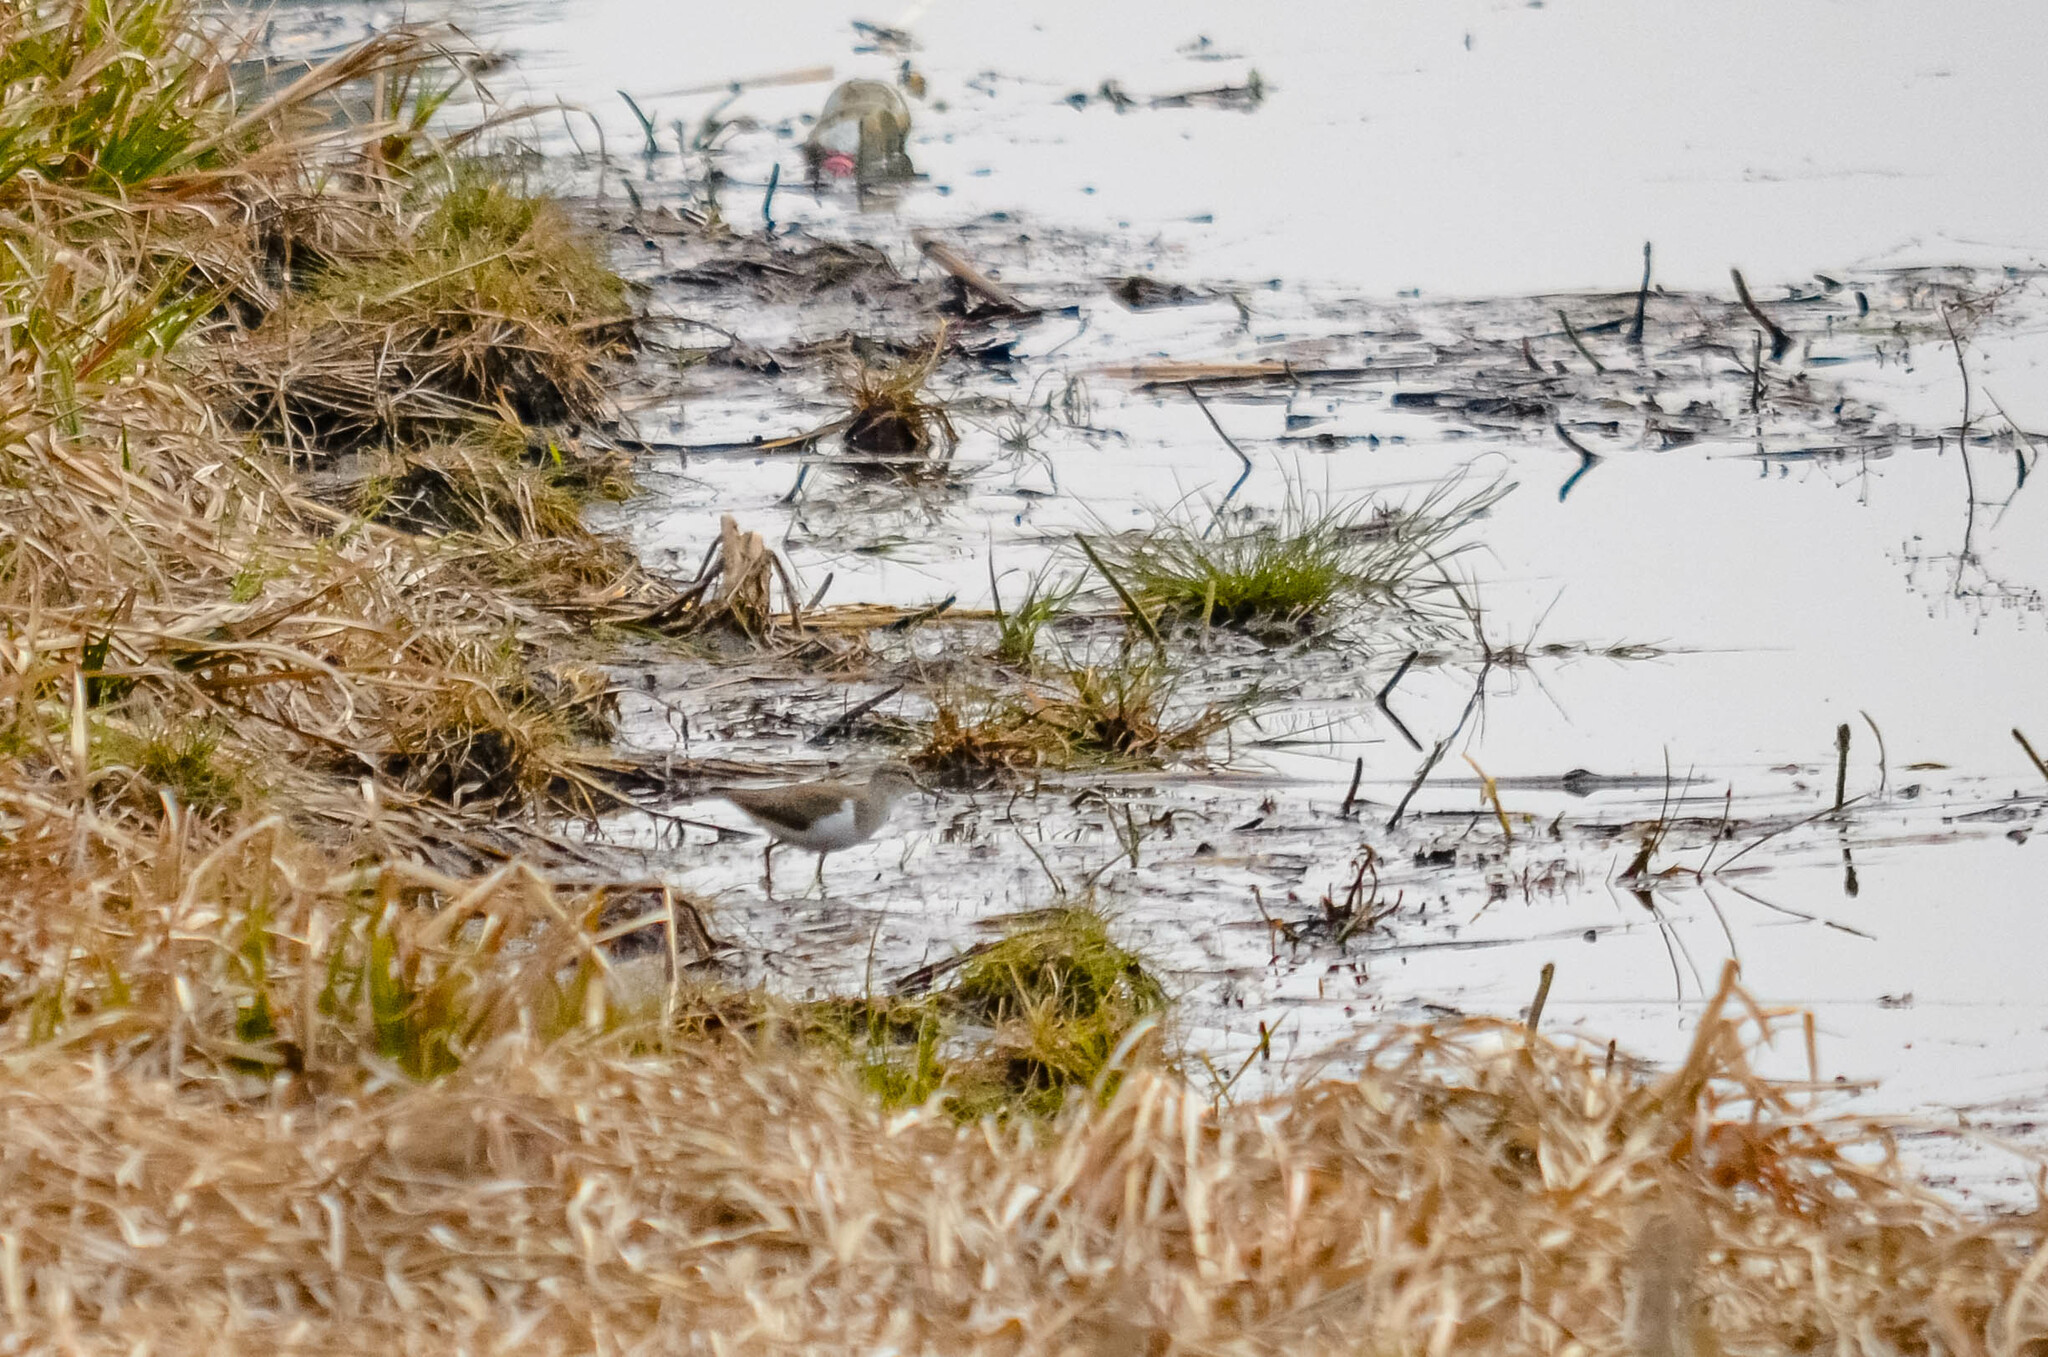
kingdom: Animalia
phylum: Chordata
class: Aves
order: Charadriiformes
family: Scolopacidae
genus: Actitis
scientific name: Actitis hypoleucos
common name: Common sandpiper
